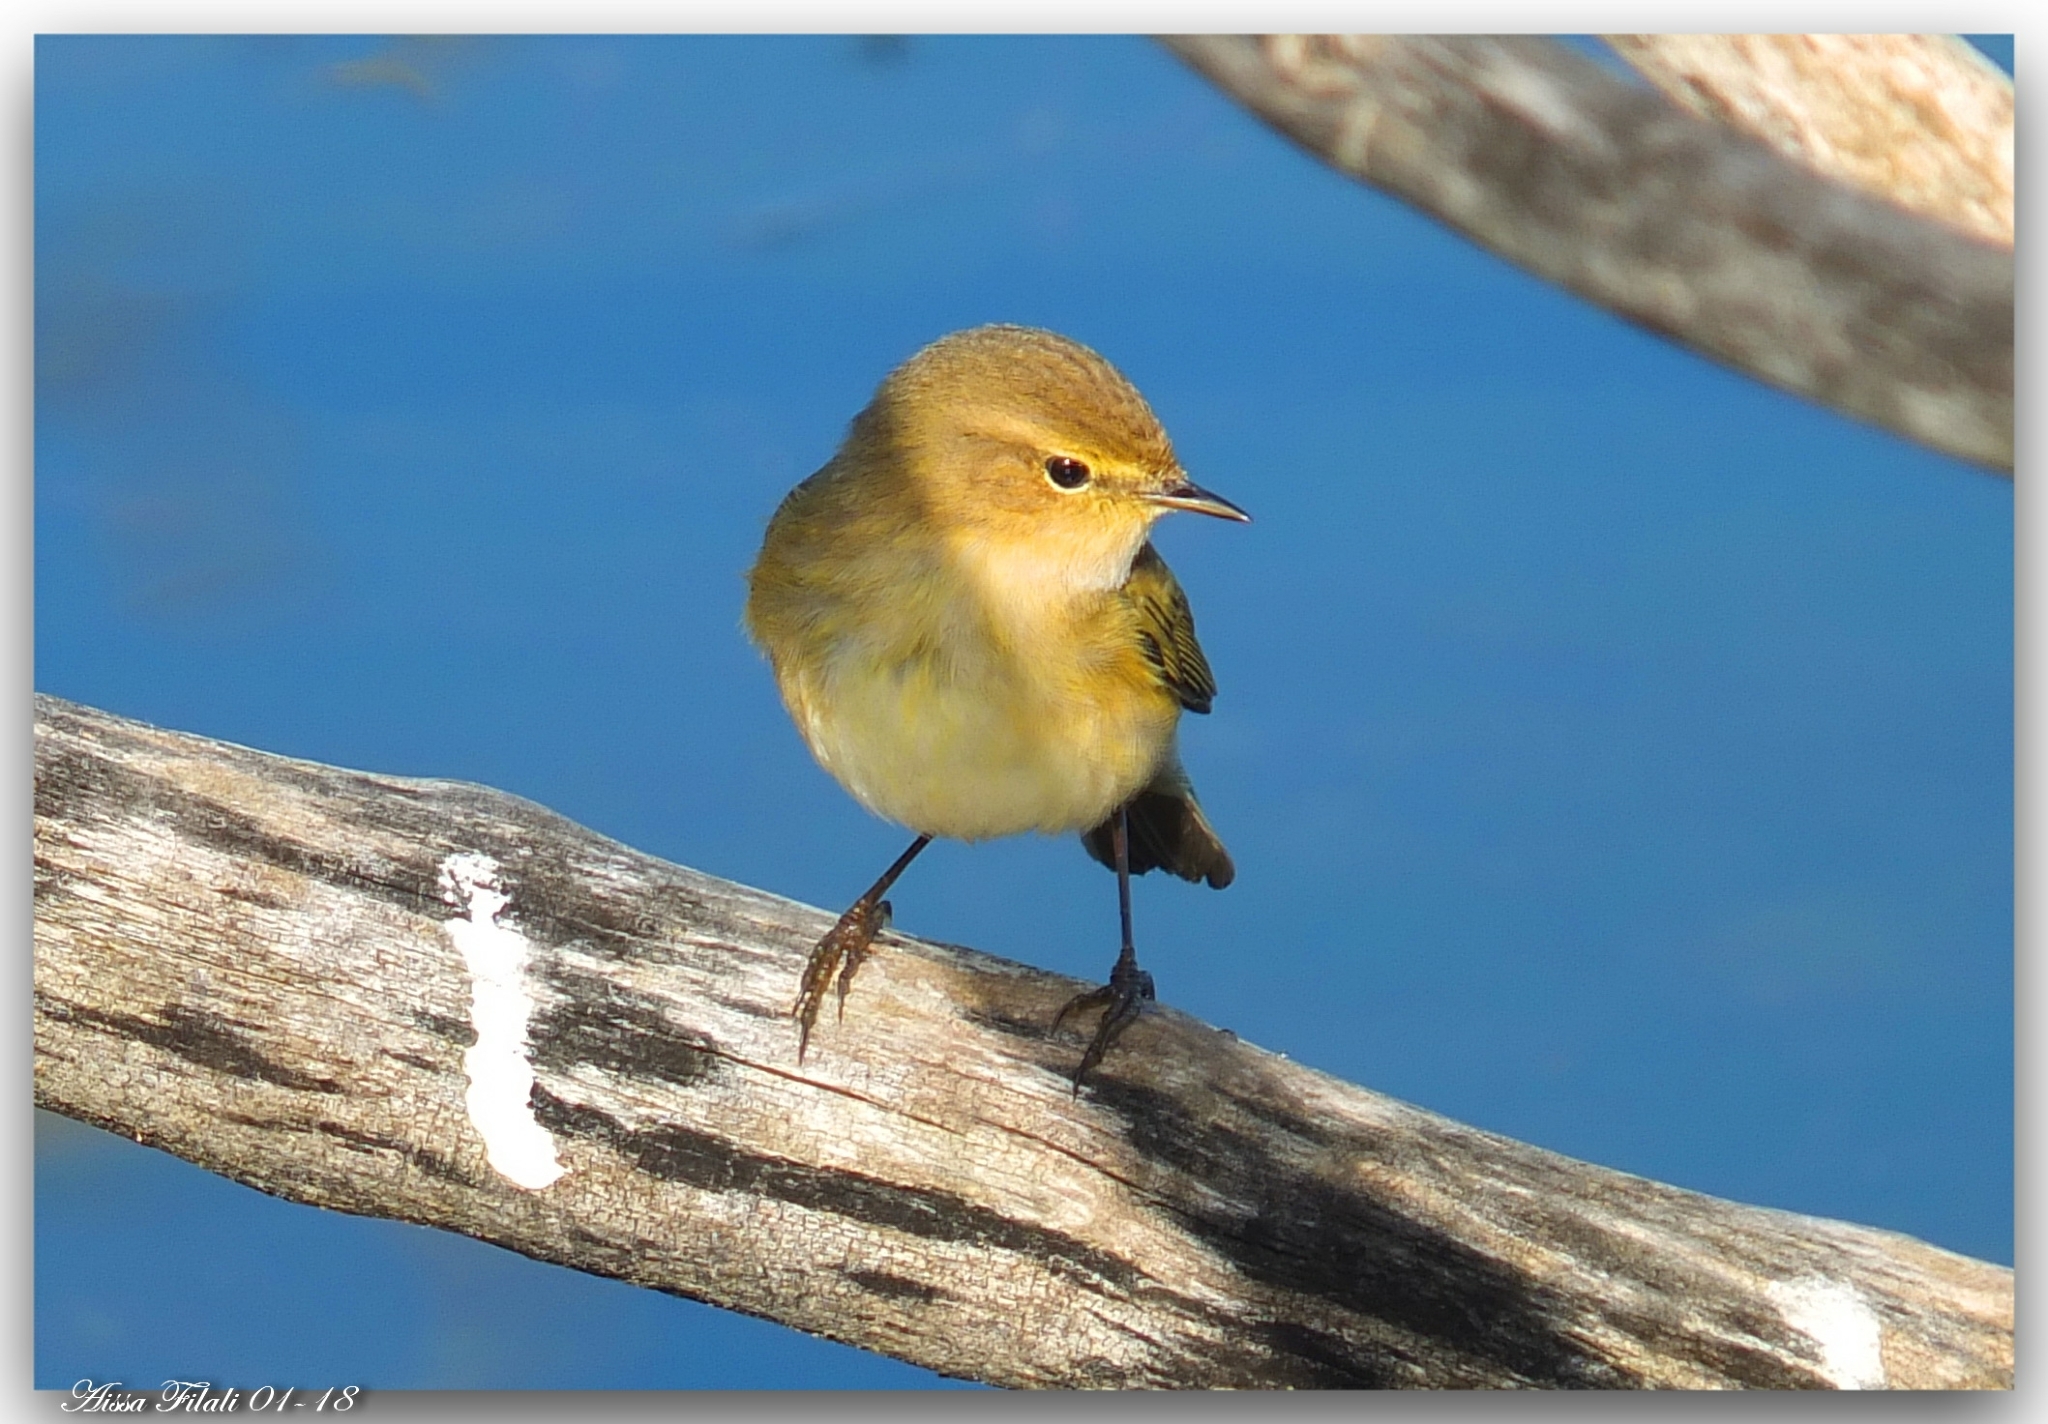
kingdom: Animalia
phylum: Chordata
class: Aves
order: Passeriformes
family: Phylloscopidae
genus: Phylloscopus
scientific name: Phylloscopus collybita
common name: Common chiffchaff
